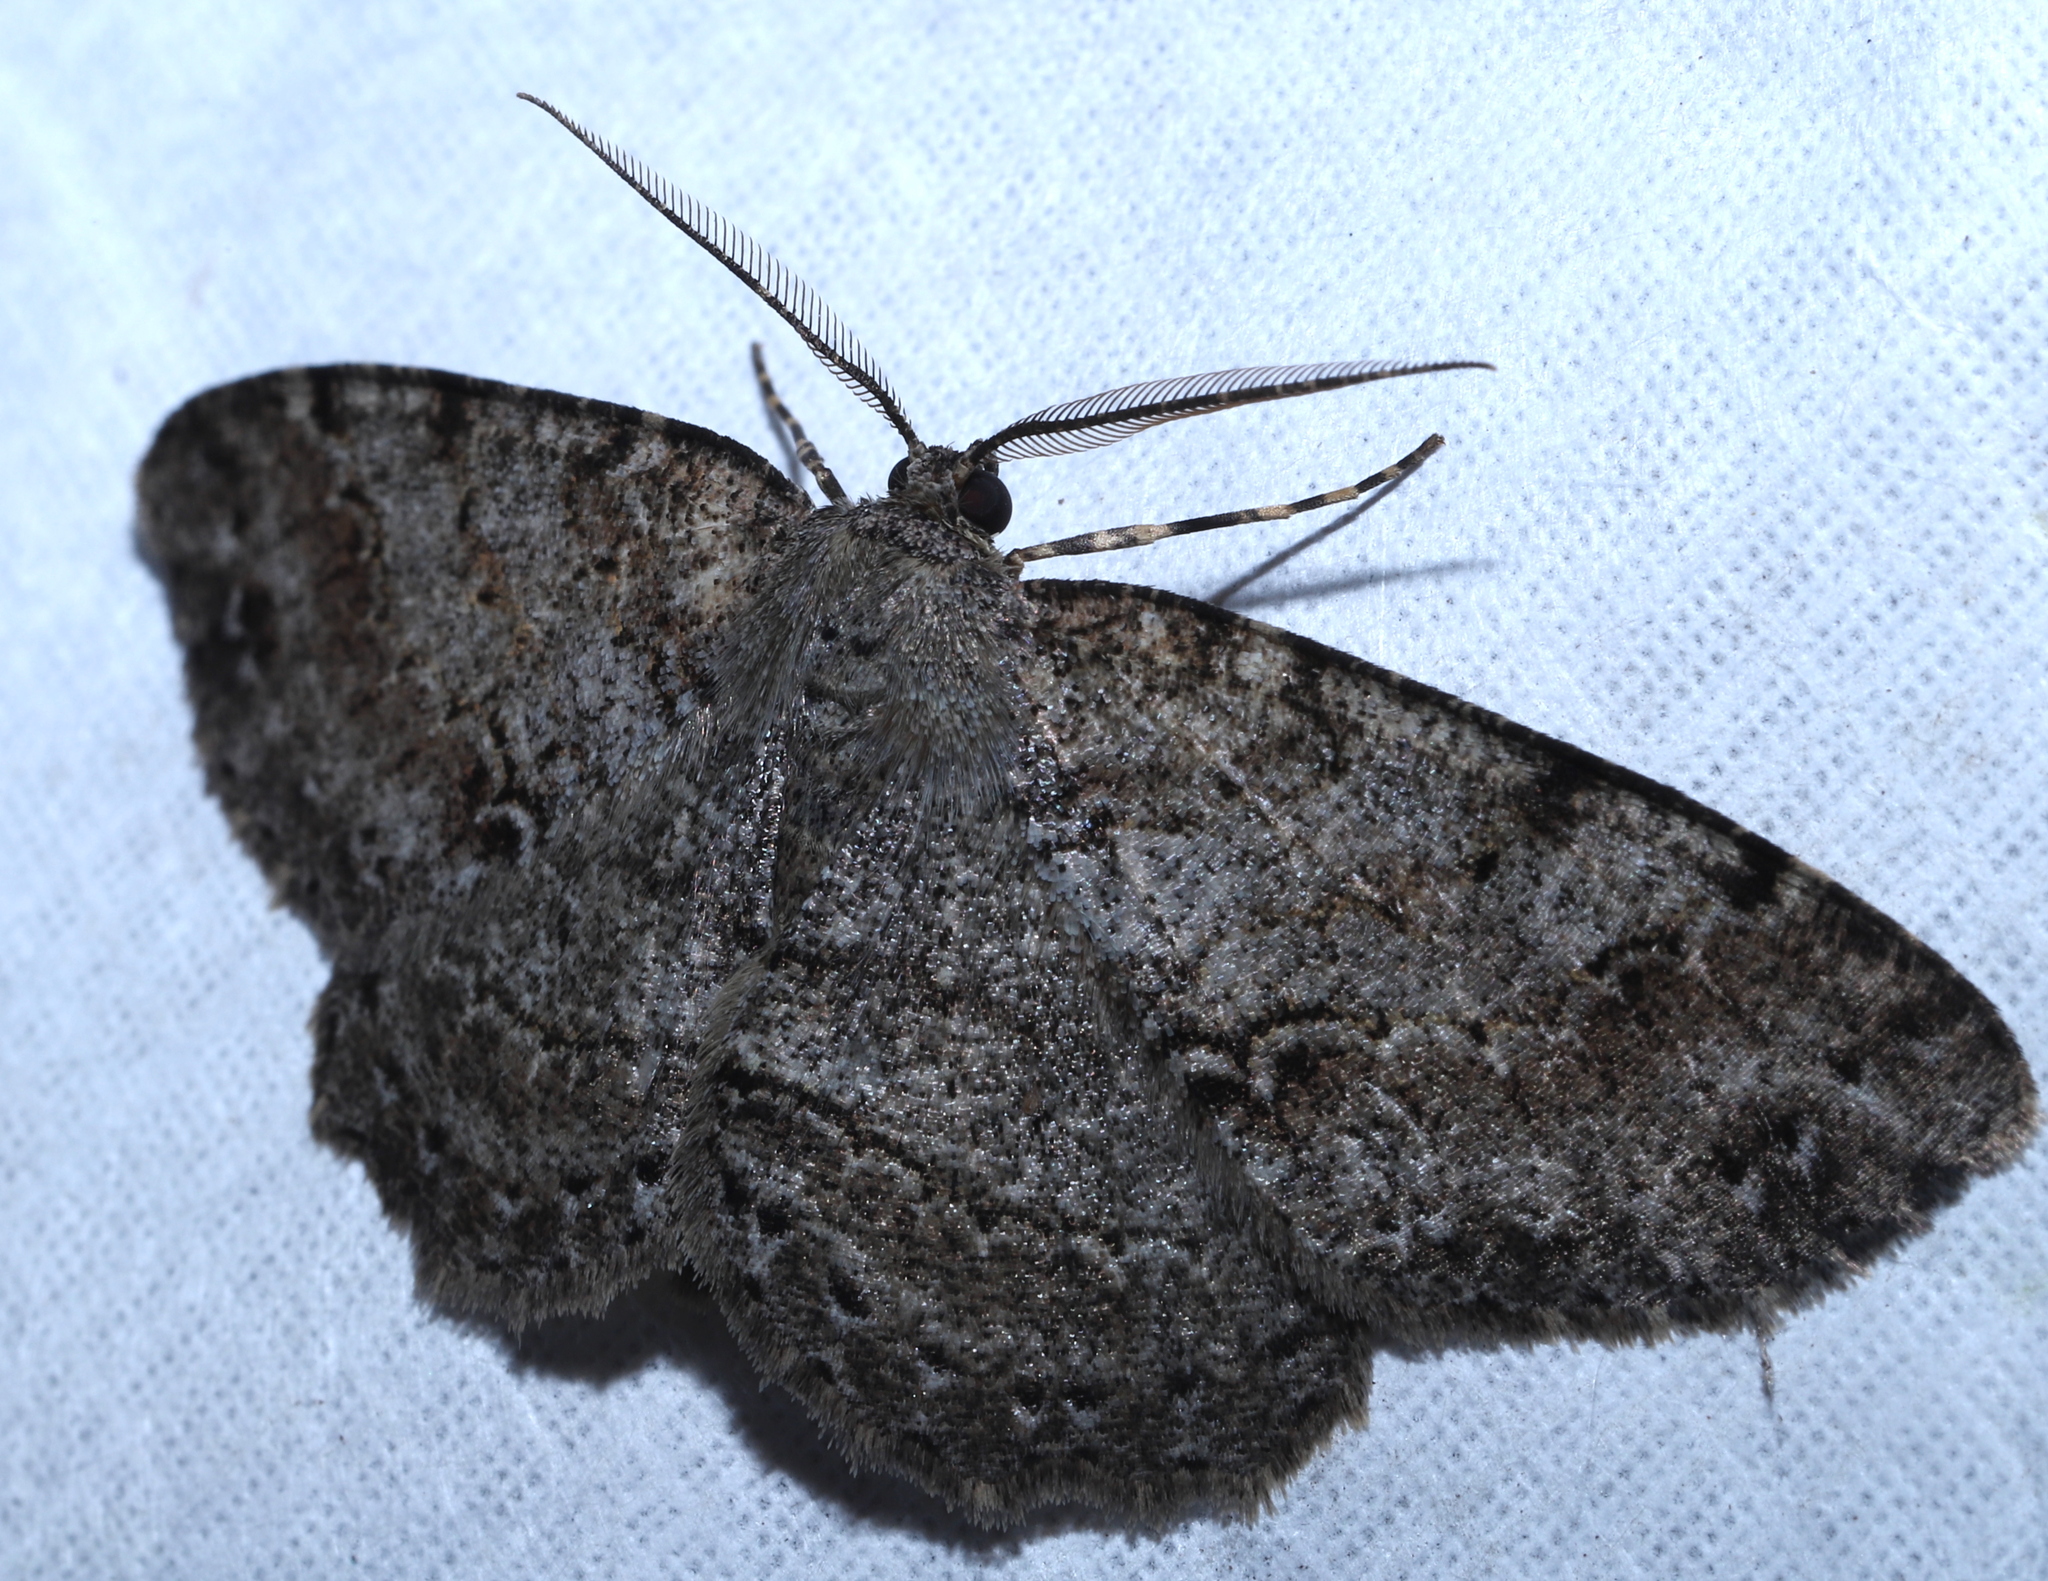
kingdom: Animalia
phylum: Arthropoda
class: Insecta
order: Lepidoptera
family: Geometridae
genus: Melanolophia
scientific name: Melanolophia canadaria
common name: Canadian melanolophia
